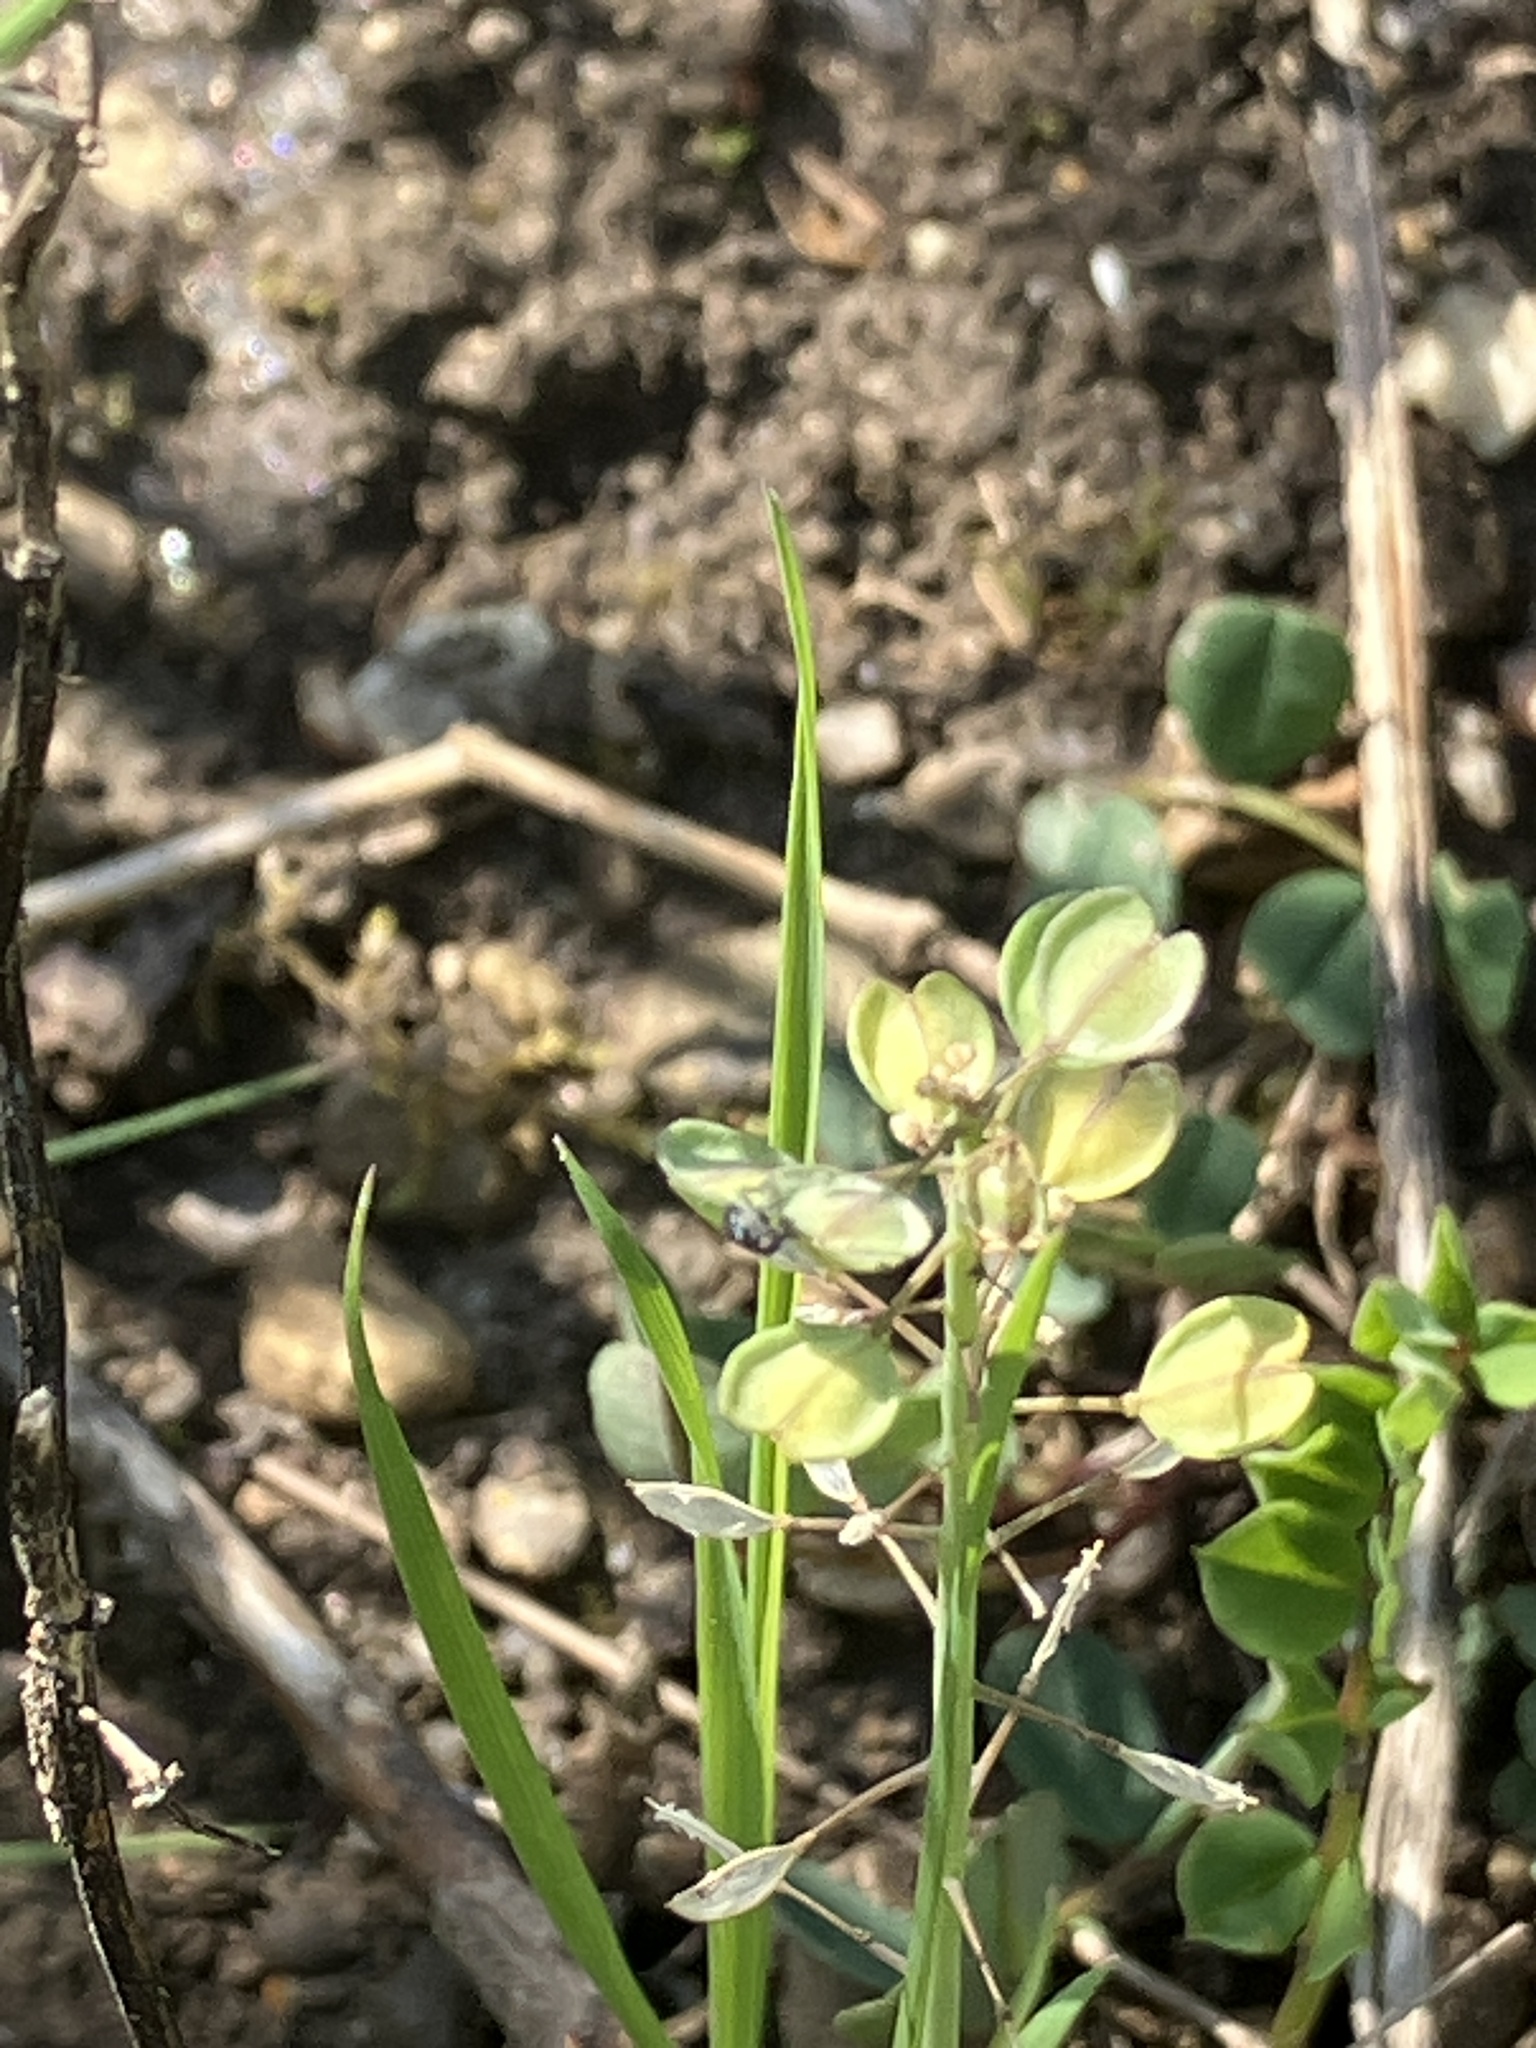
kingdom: Plantae
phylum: Tracheophyta
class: Magnoliopsida
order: Brassicales
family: Brassicaceae
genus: Noccaea
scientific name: Noccaea perfoliata
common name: Perfoliate pennycress
